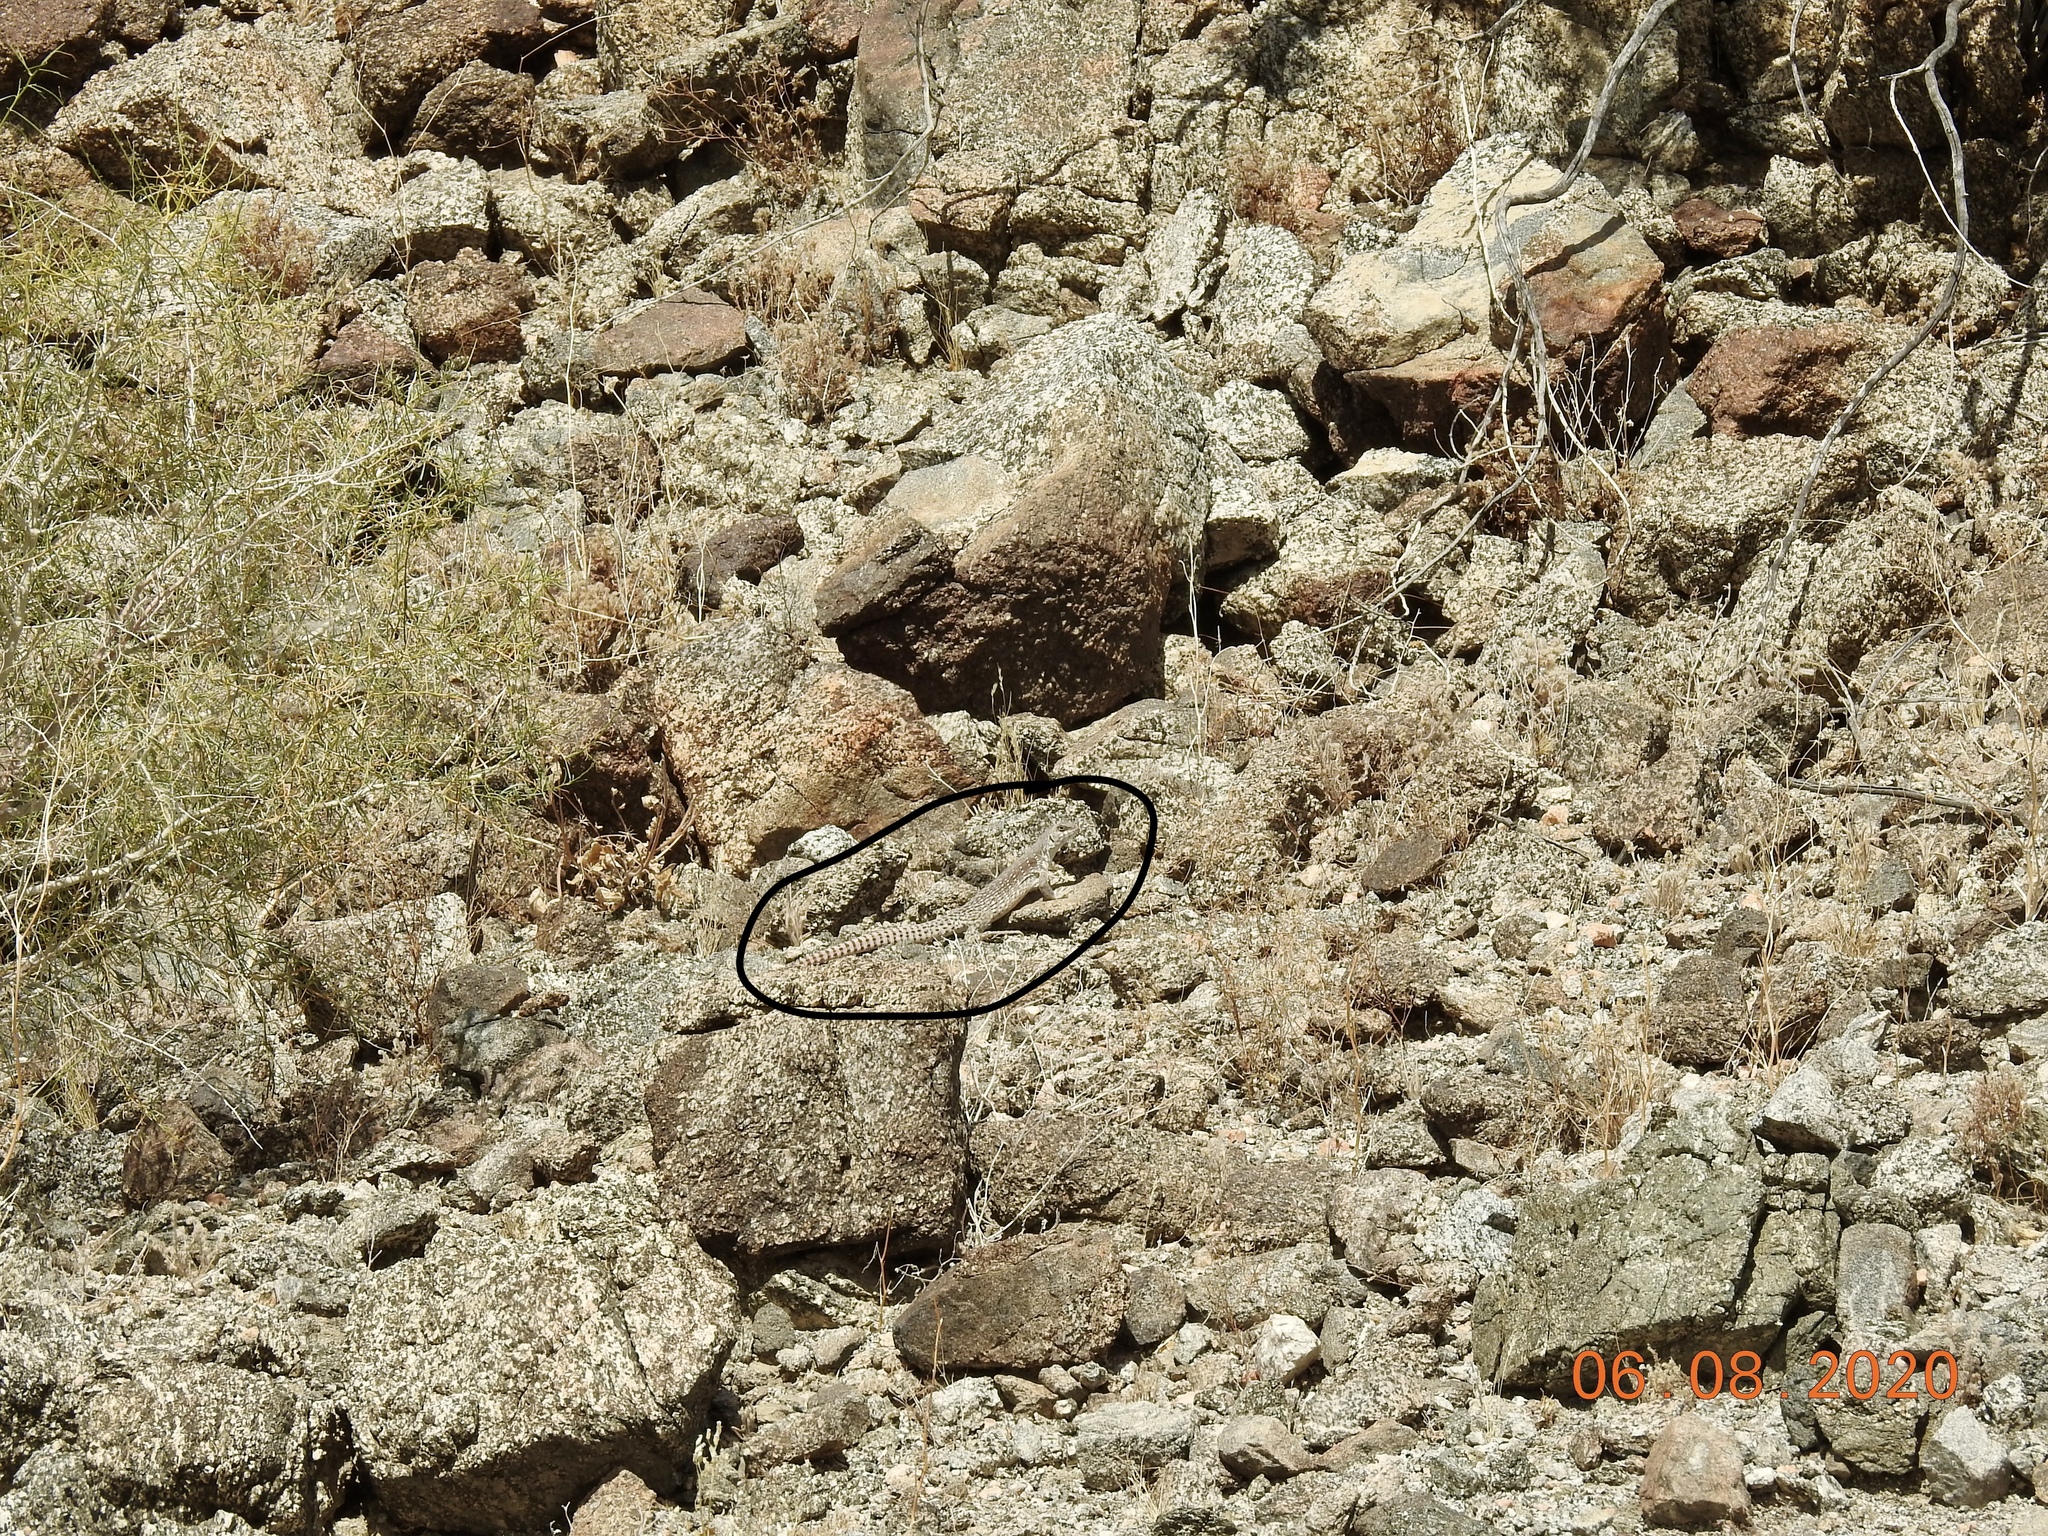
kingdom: Animalia
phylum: Chordata
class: Squamata
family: Iguanidae
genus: Dipsosaurus
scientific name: Dipsosaurus dorsalis
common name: Desert iguana
